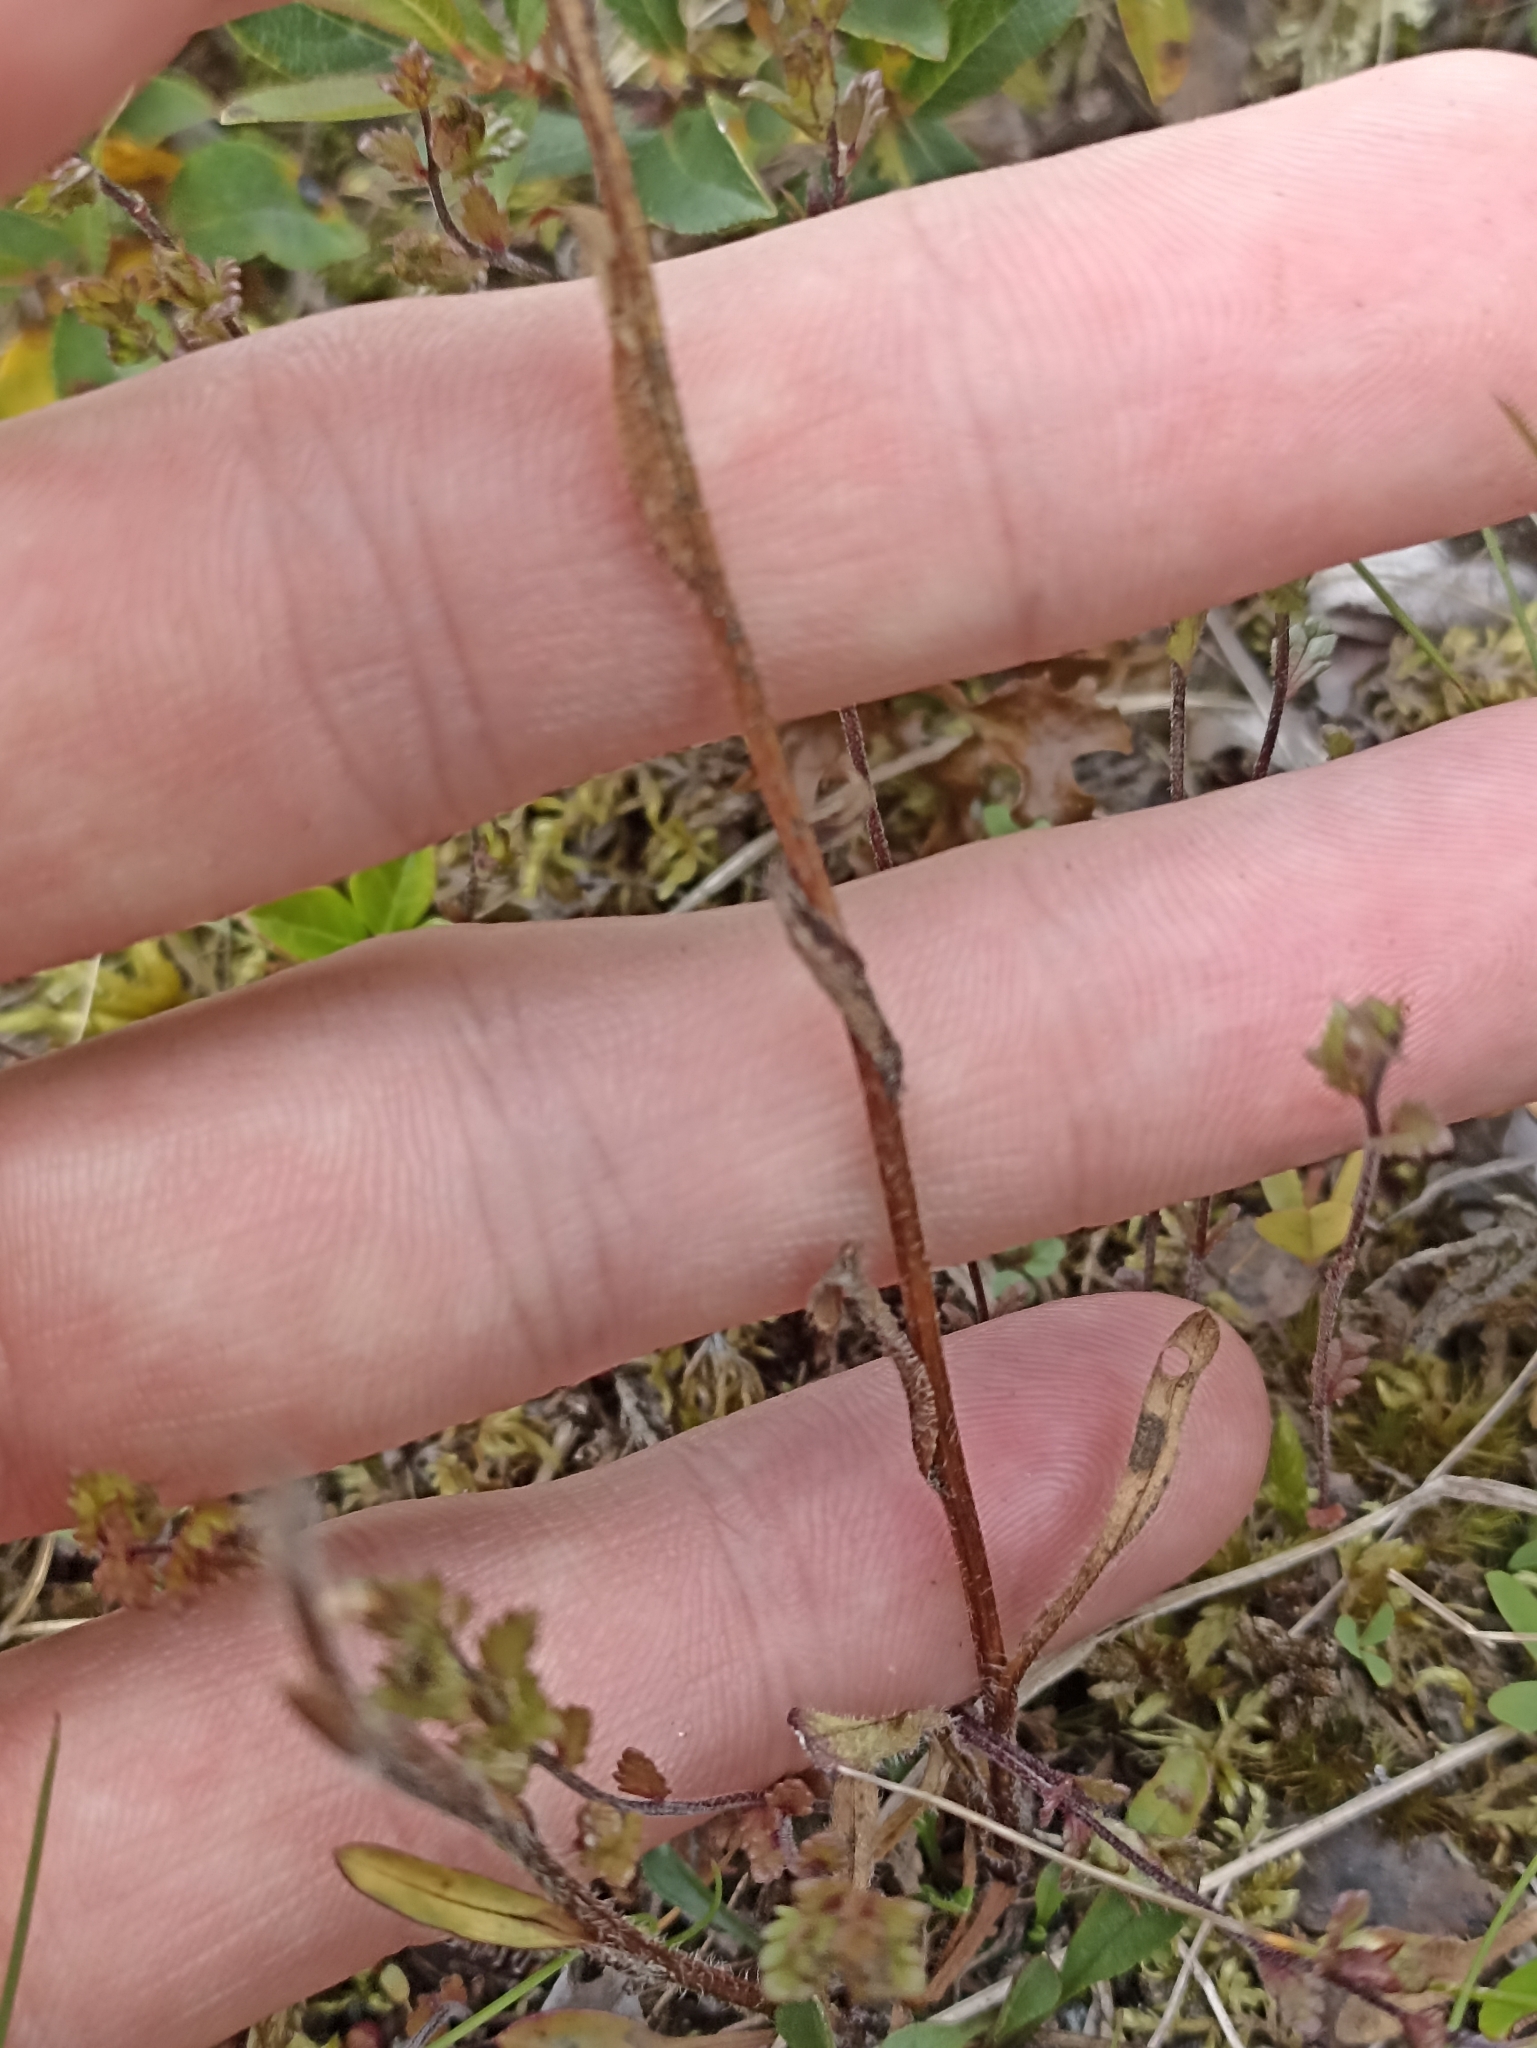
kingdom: Plantae
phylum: Tracheophyta
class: Magnoliopsida
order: Asterales
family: Asteraceae
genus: Erigeron
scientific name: Erigeron borealis
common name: Alpine fleabane
